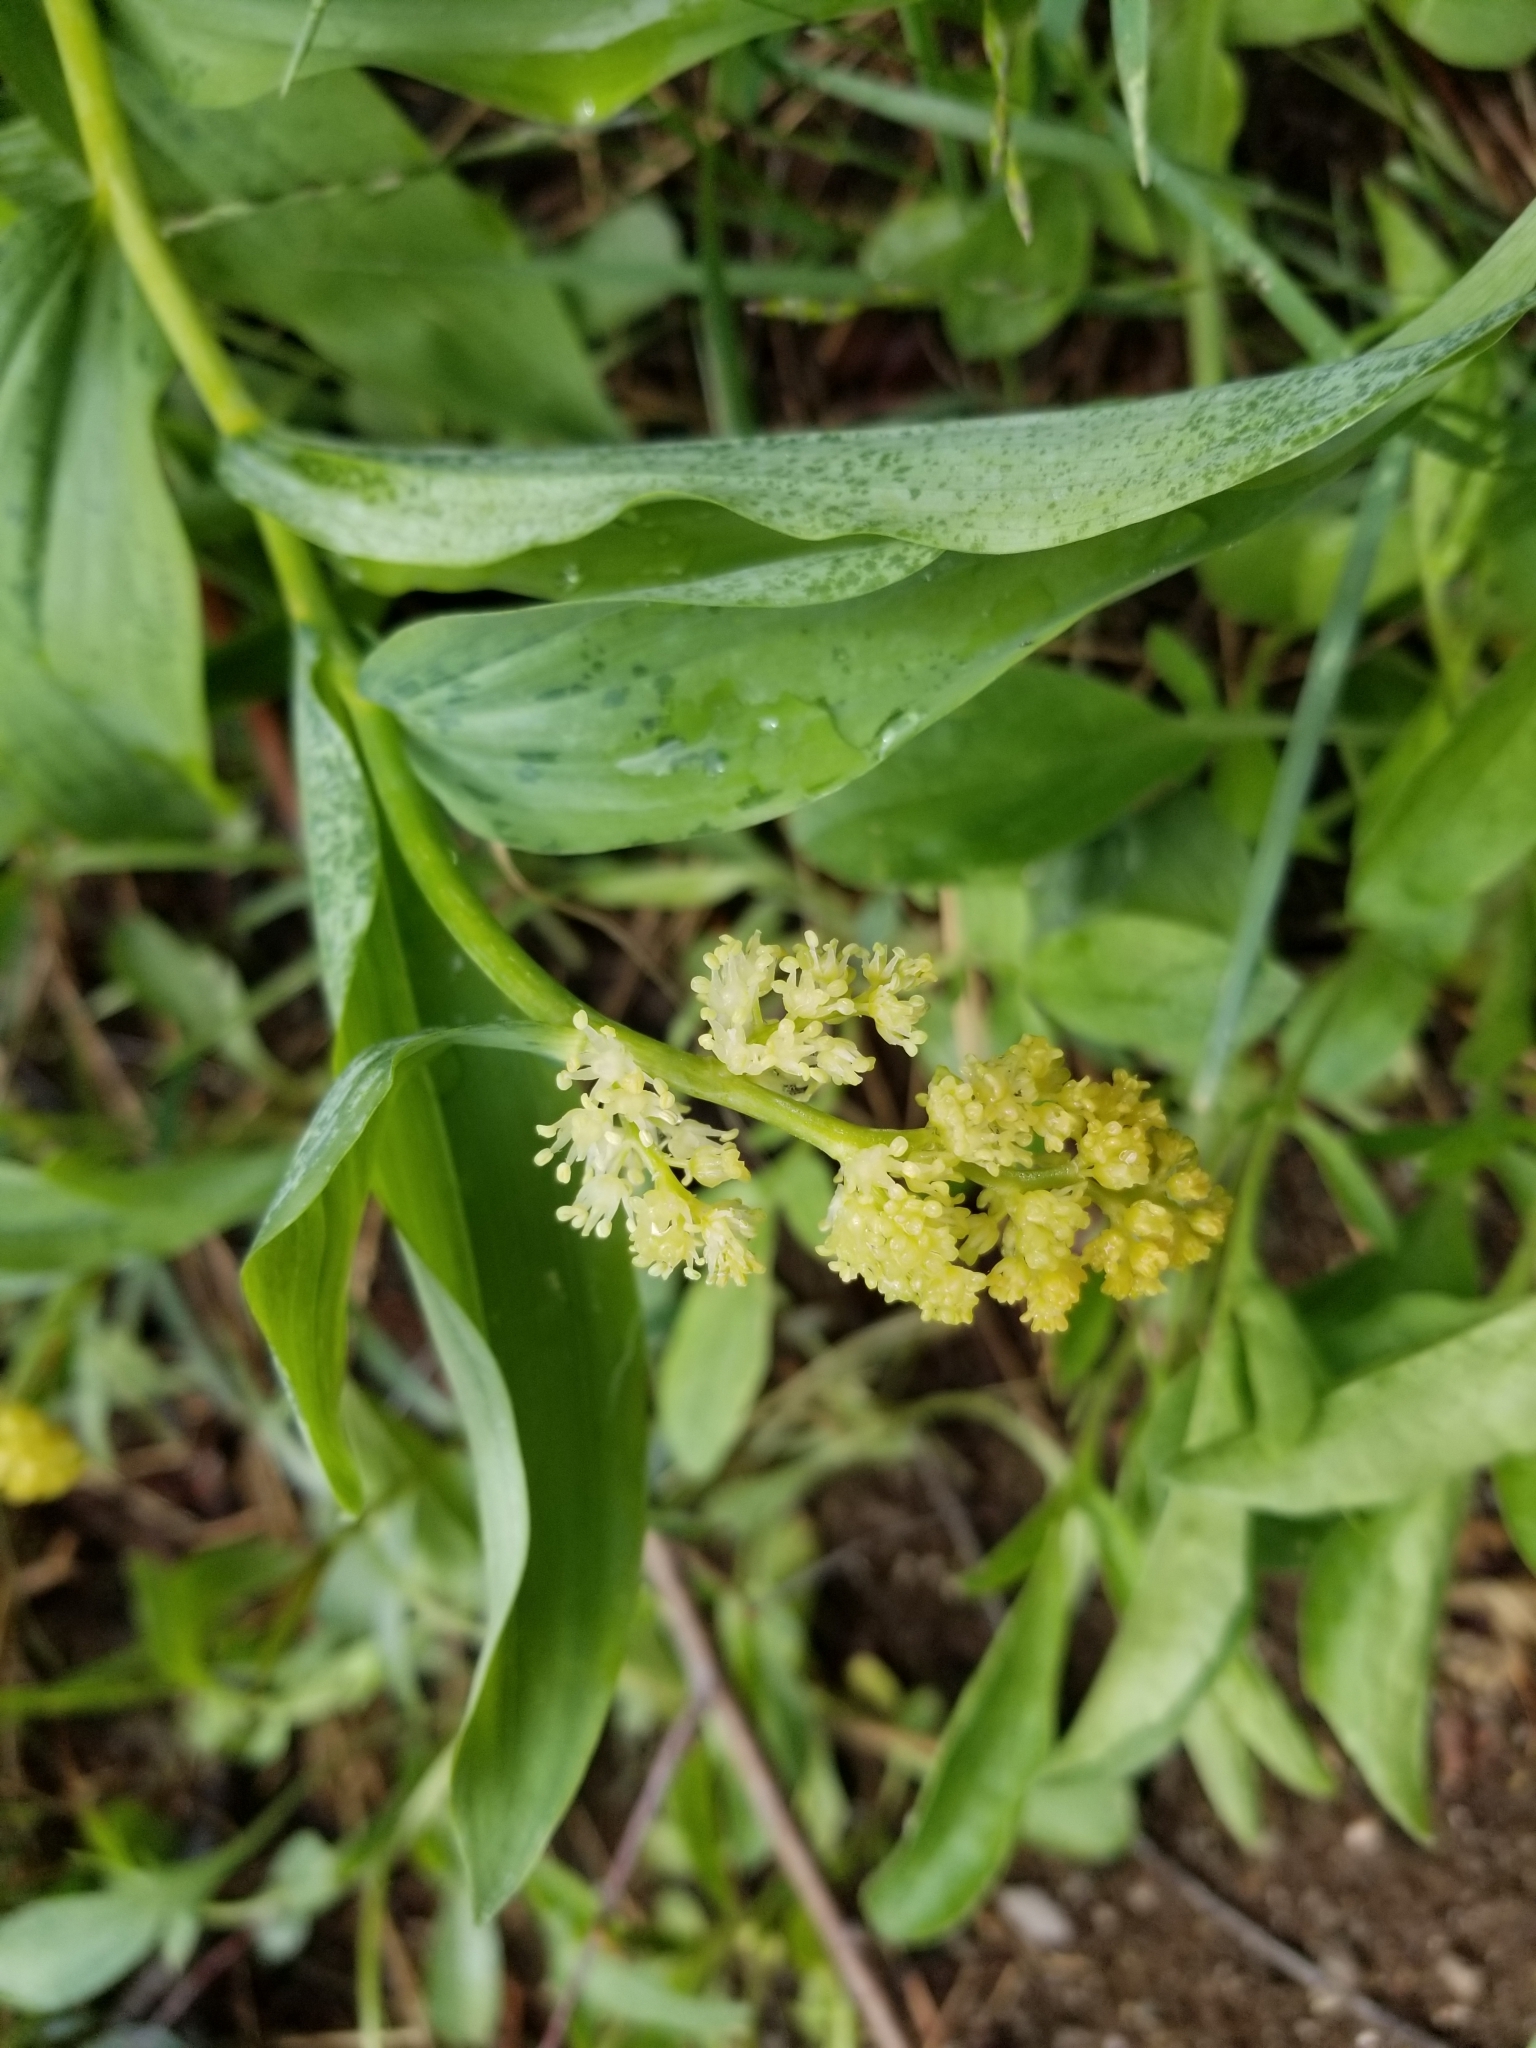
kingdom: Plantae
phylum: Tracheophyta
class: Liliopsida
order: Asparagales
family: Asparagaceae
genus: Maianthemum
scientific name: Maianthemum racemosum
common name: False spikenard
